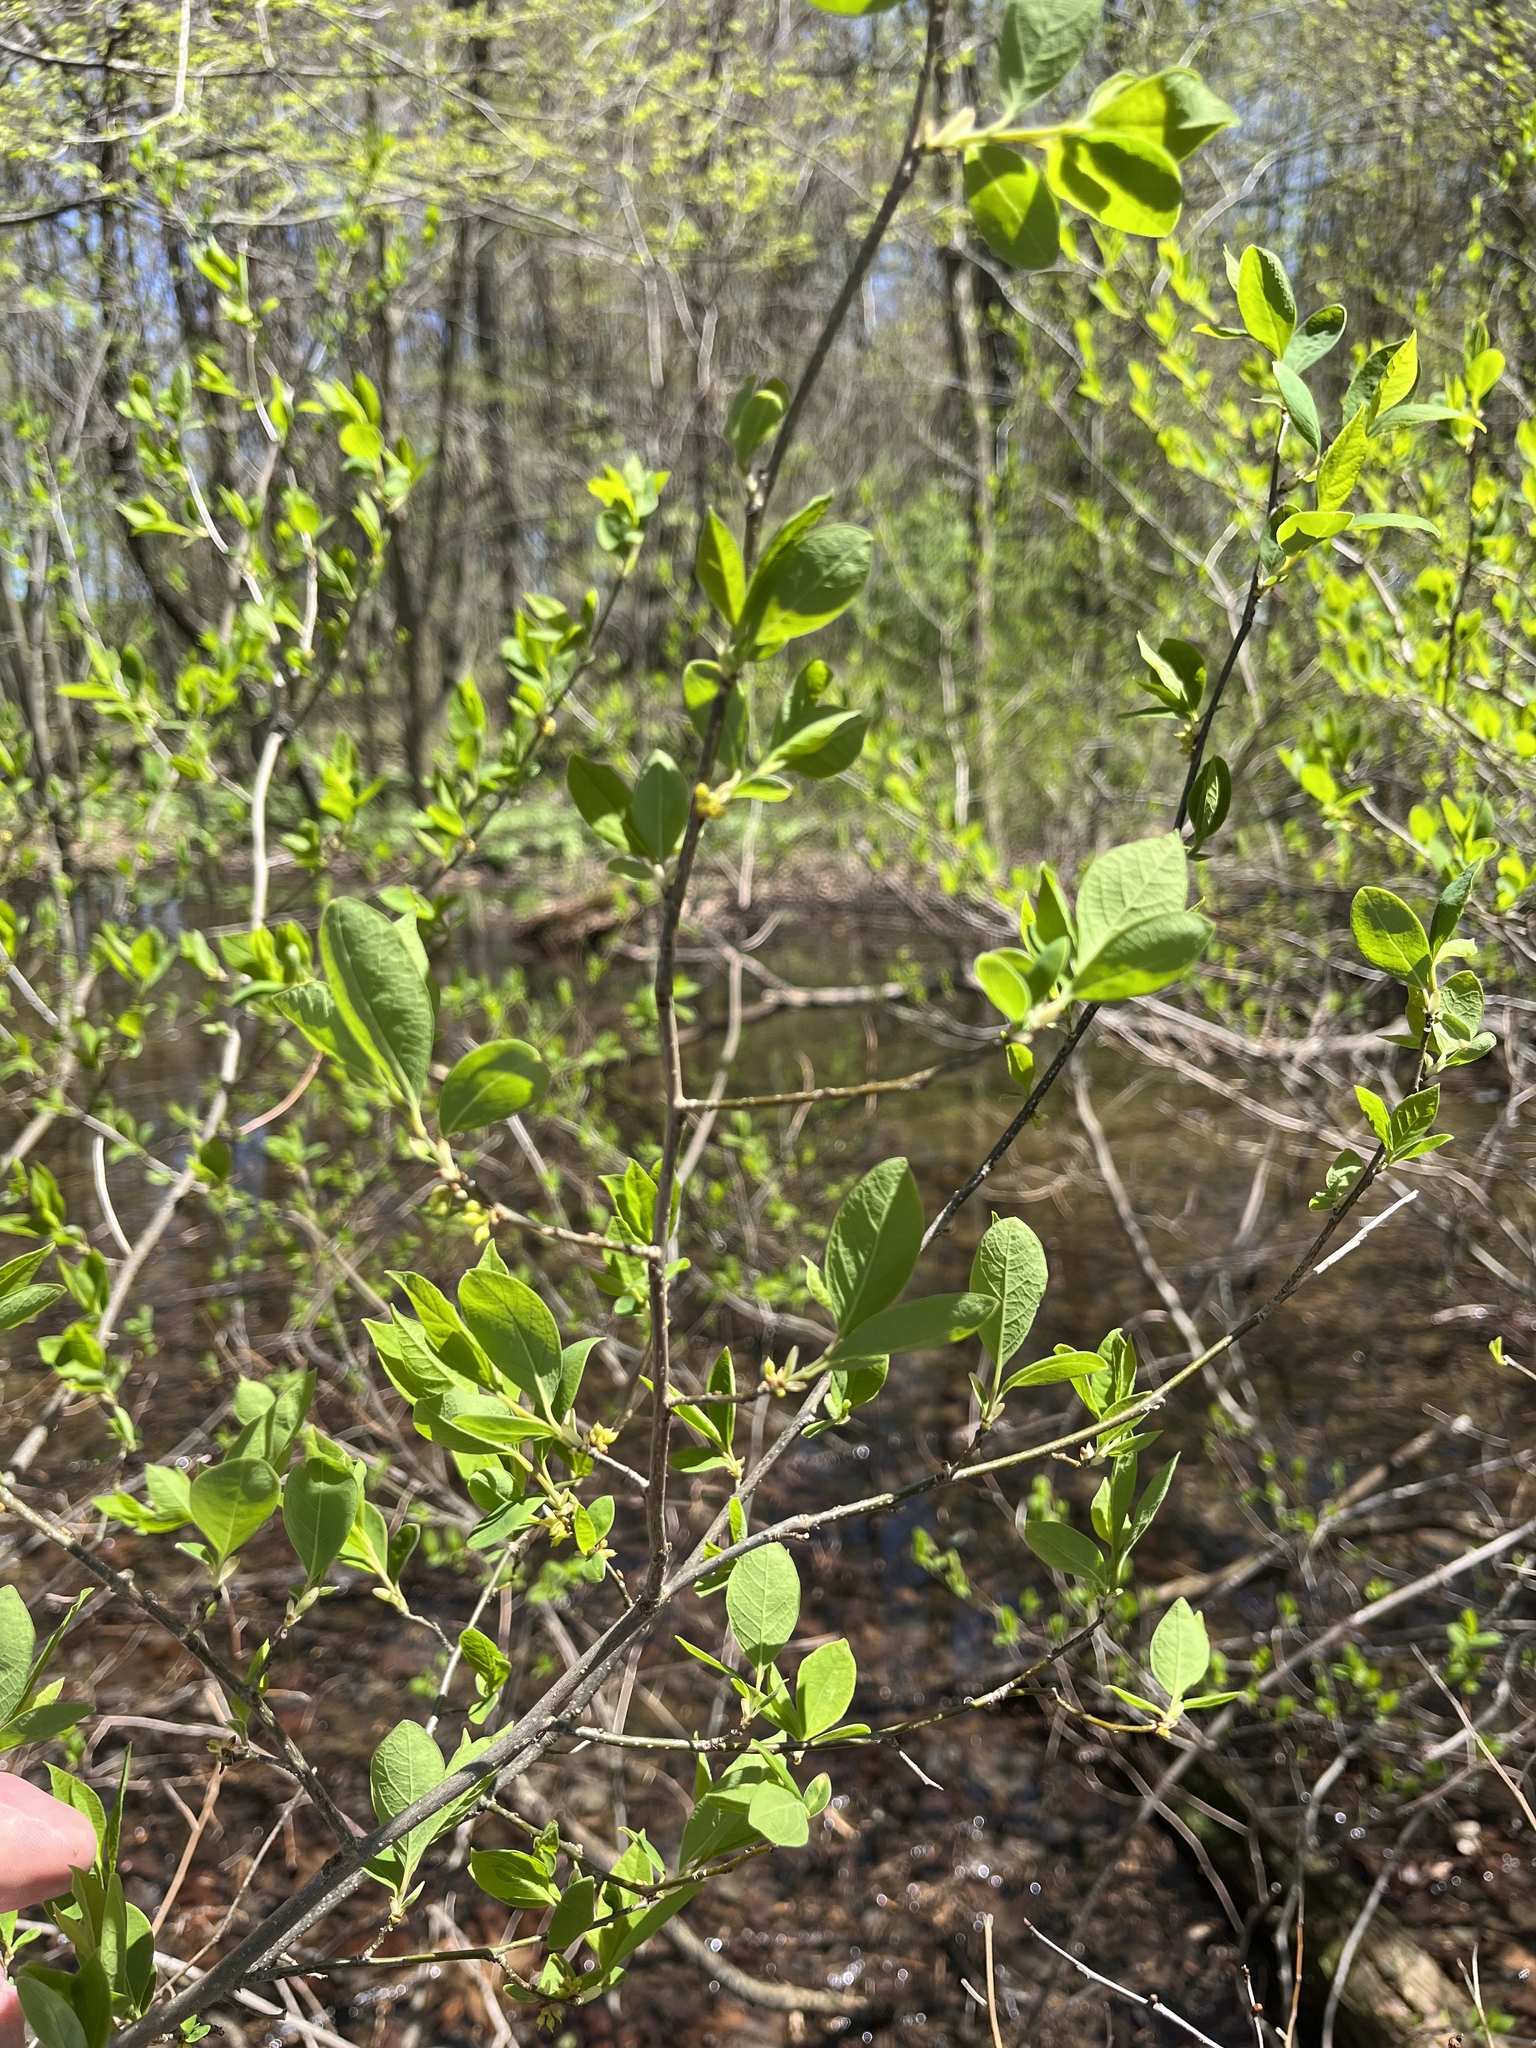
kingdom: Plantae
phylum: Tracheophyta
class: Magnoliopsida
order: Laurales
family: Lauraceae
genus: Lindera
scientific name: Lindera benzoin
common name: Spicebush
